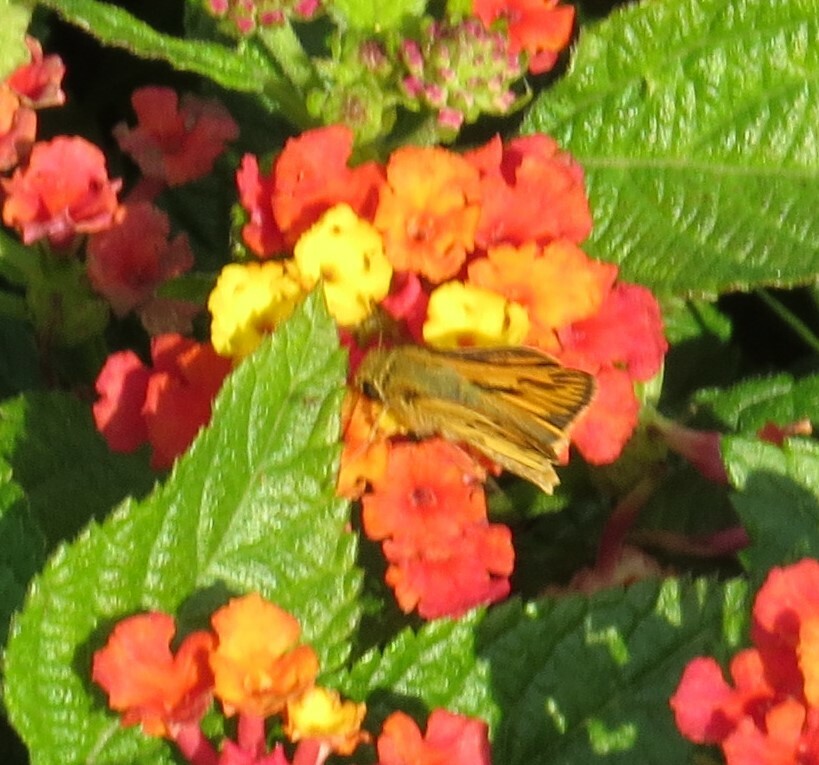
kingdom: Animalia
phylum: Arthropoda
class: Insecta
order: Lepidoptera
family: Hesperiidae
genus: Hylephila
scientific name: Hylephila phyleus
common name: Fiery skipper
